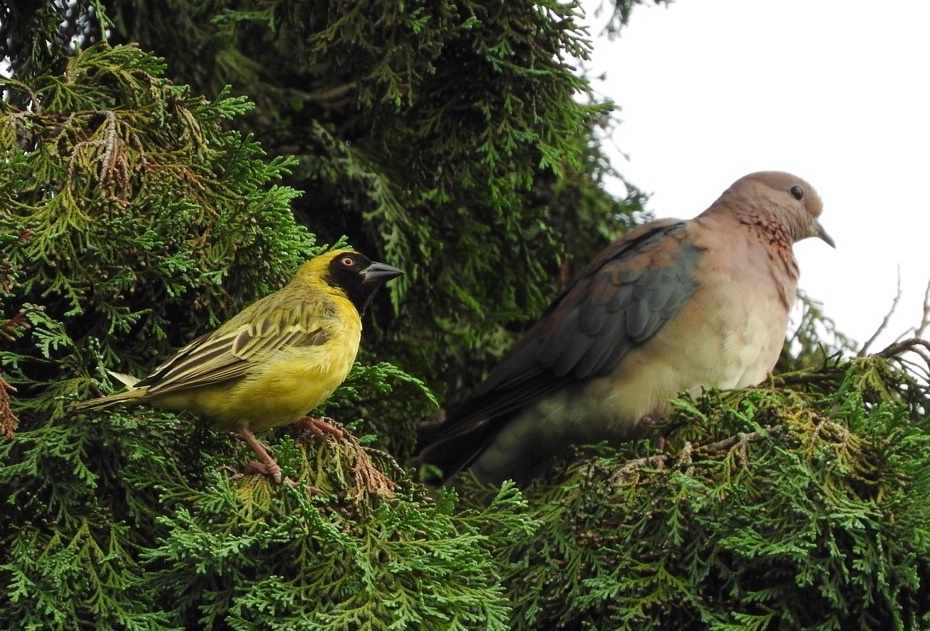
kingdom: Animalia
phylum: Chordata
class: Aves
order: Passeriformes
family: Ploceidae
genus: Ploceus
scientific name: Ploceus velatus
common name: Southern masked weaver
